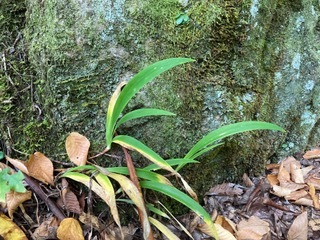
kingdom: Plantae
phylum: Tracheophyta
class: Liliopsida
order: Asparagales
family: Iridaceae
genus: Iris
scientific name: Iris cristata
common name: Crested iris
